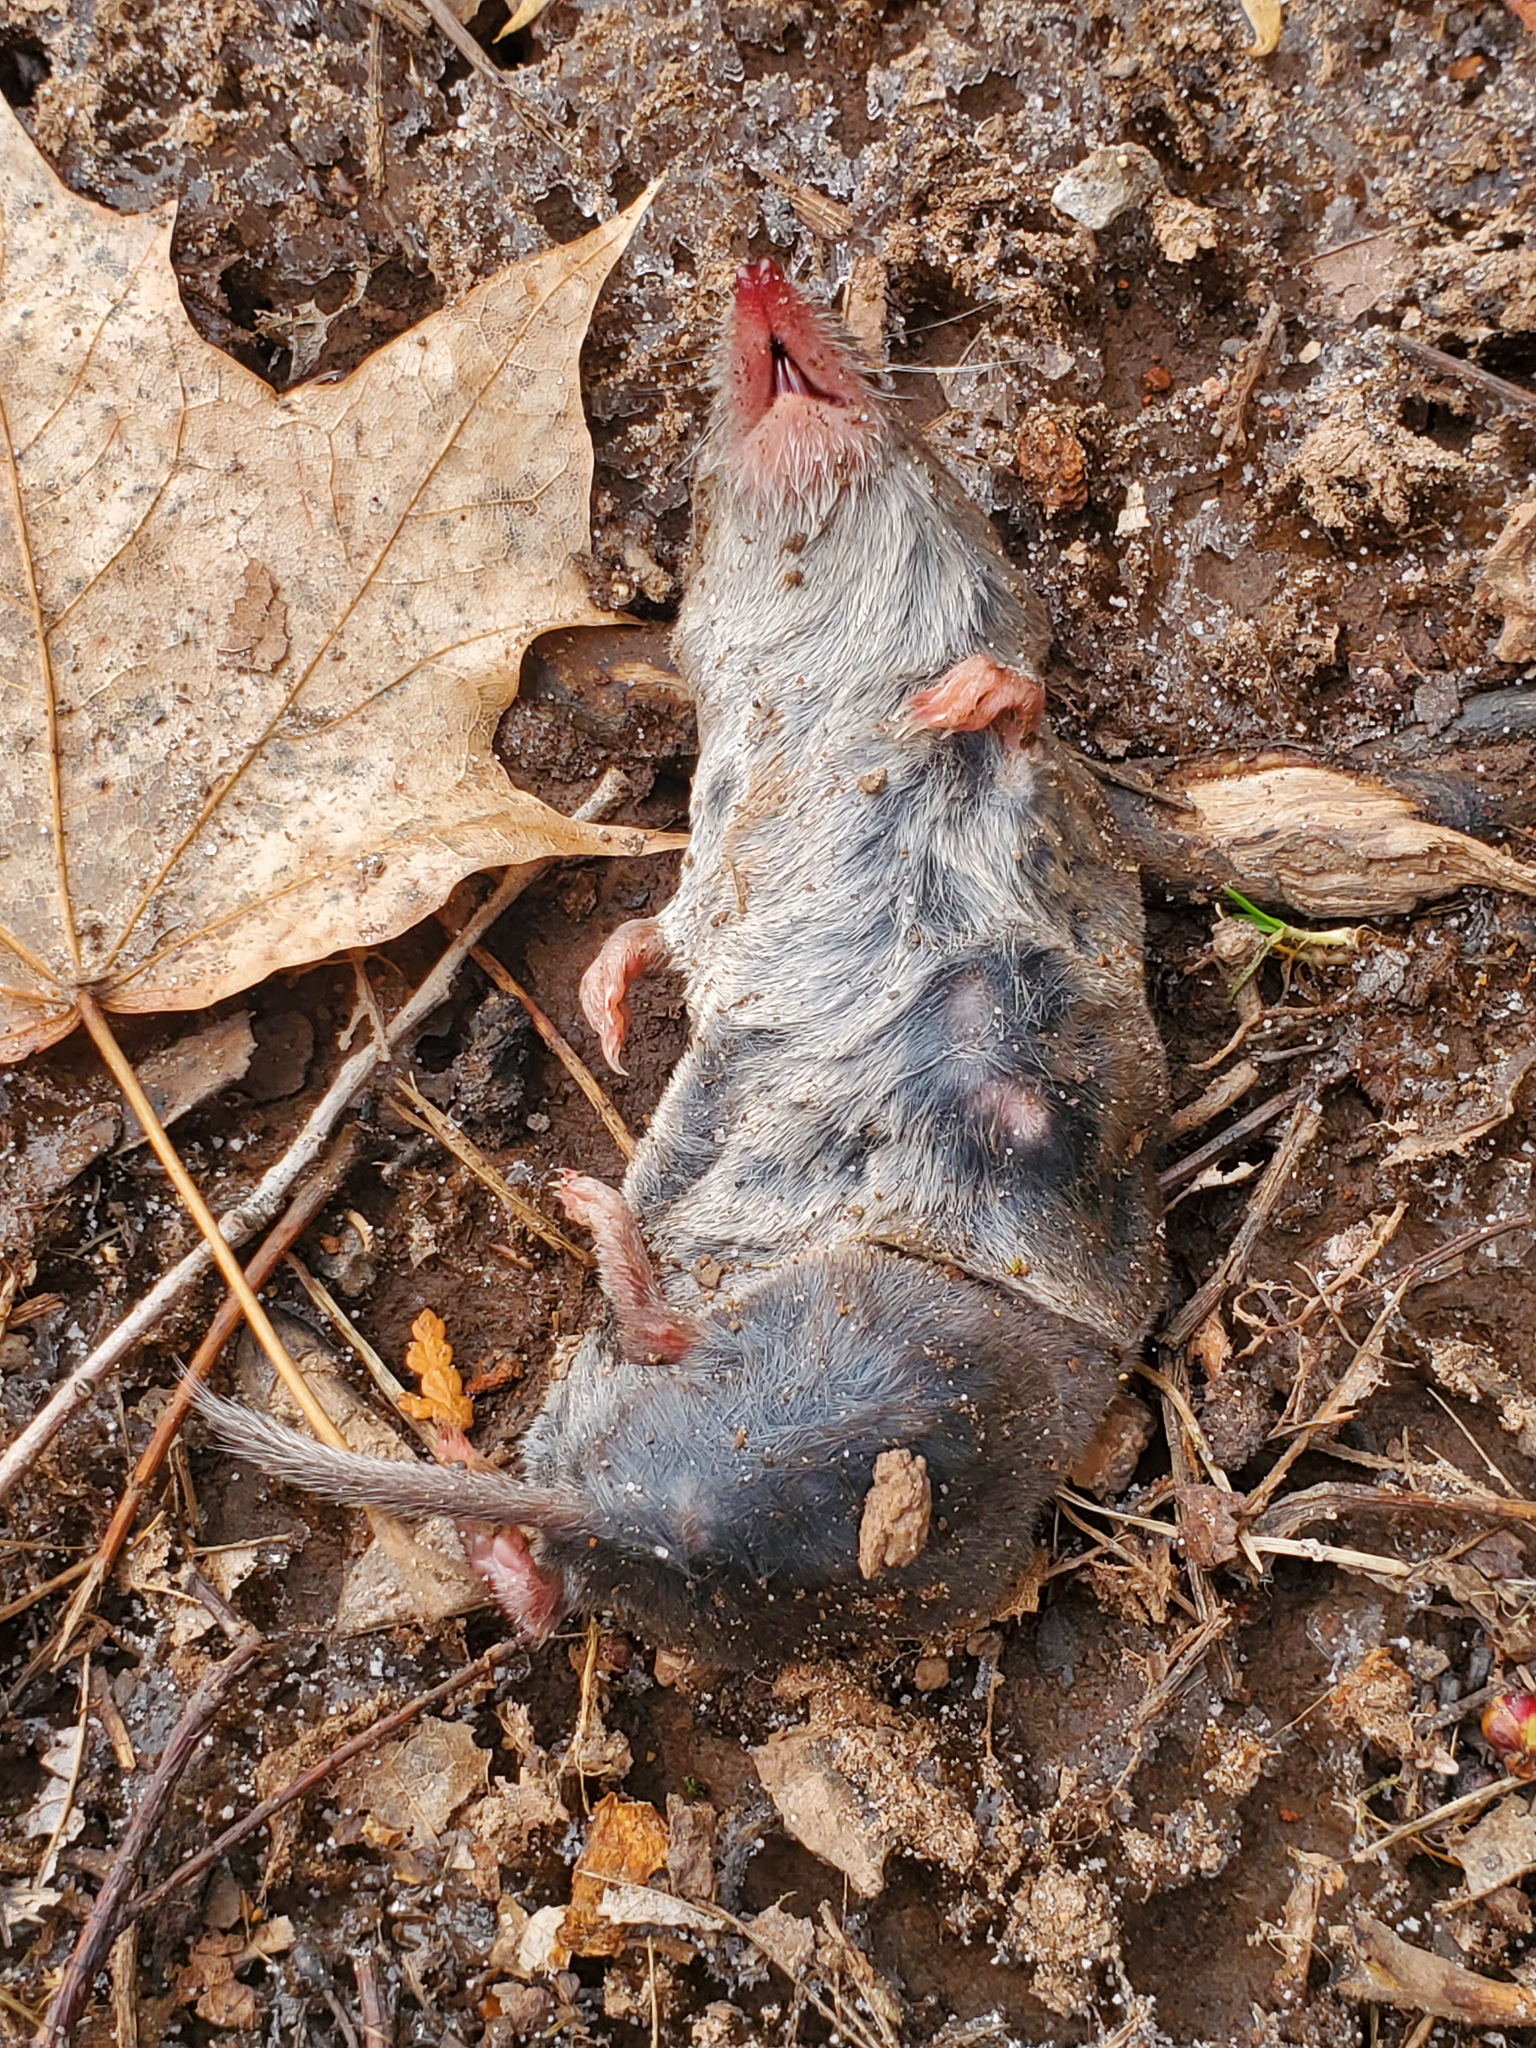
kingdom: Animalia
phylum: Chordata
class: Mammalia
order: Soricomorpha
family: Soricidae
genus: Blarina
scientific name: Blarina brevicauda
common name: Northern short-tailed shrew
